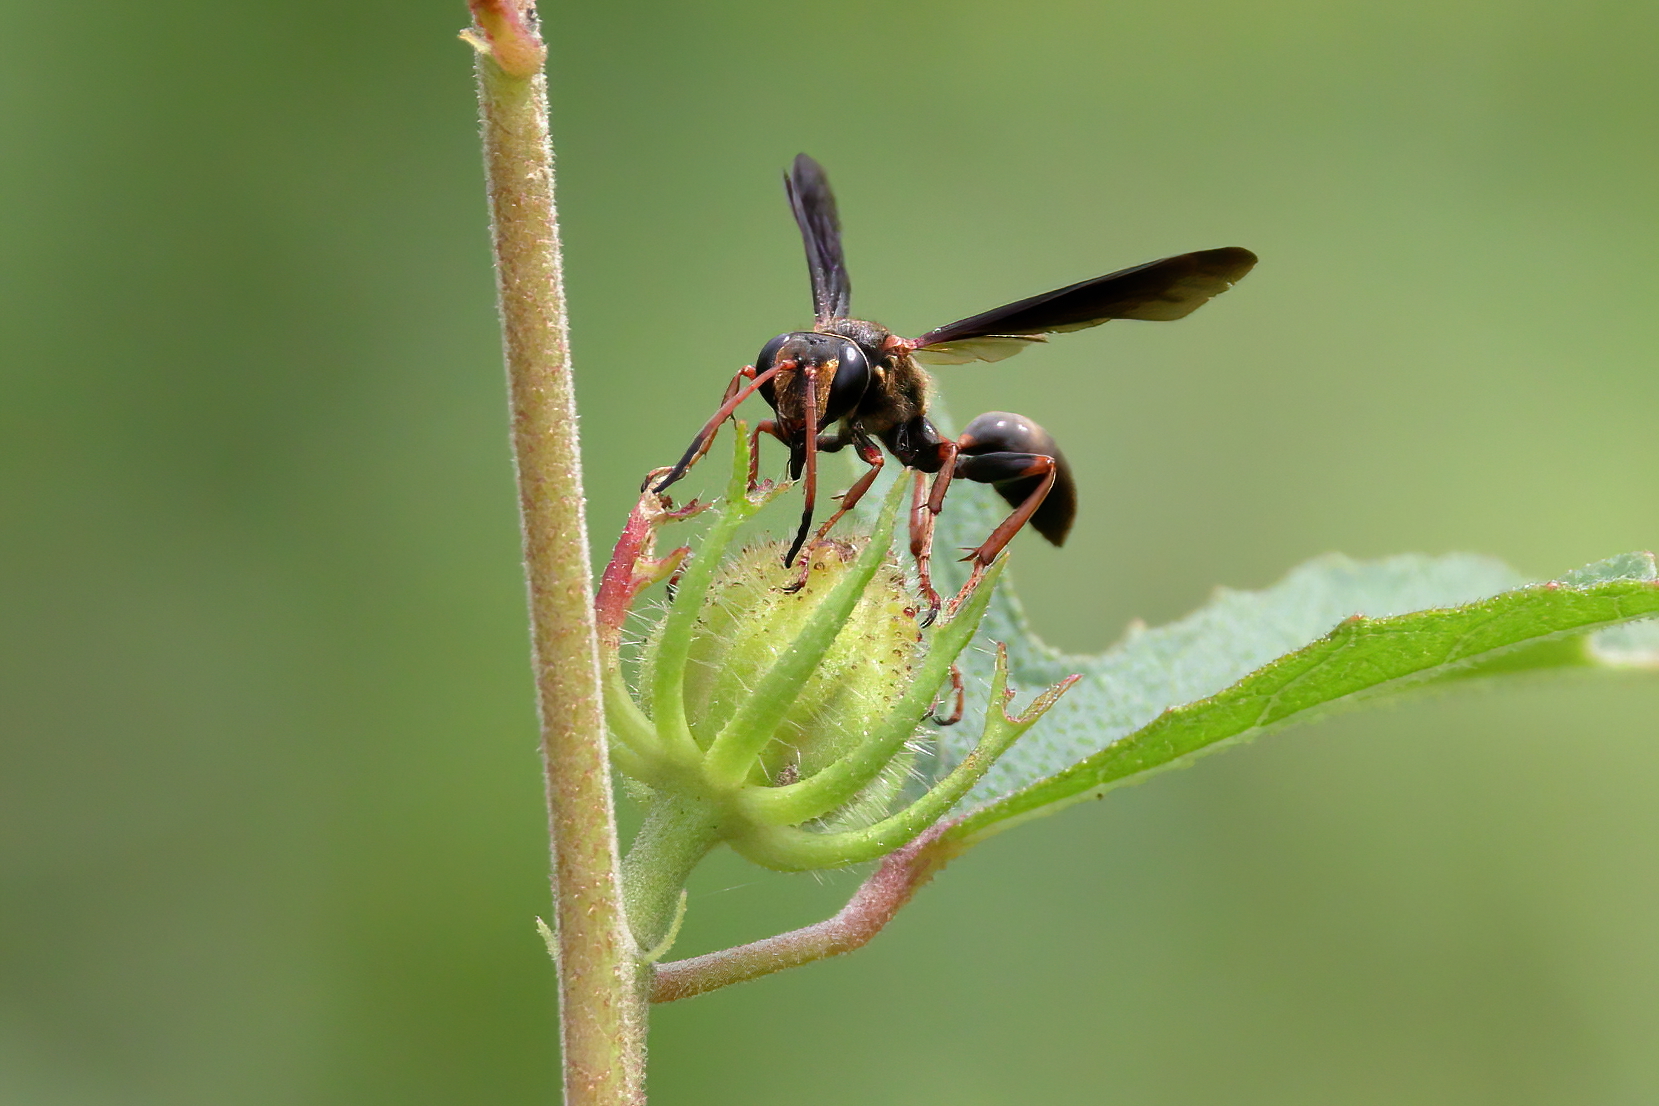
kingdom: Animalia
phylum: Arthropoda
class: Insecta
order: Hymenoptera
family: Sphecidae
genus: Isodontia
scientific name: Isodontia exornata
